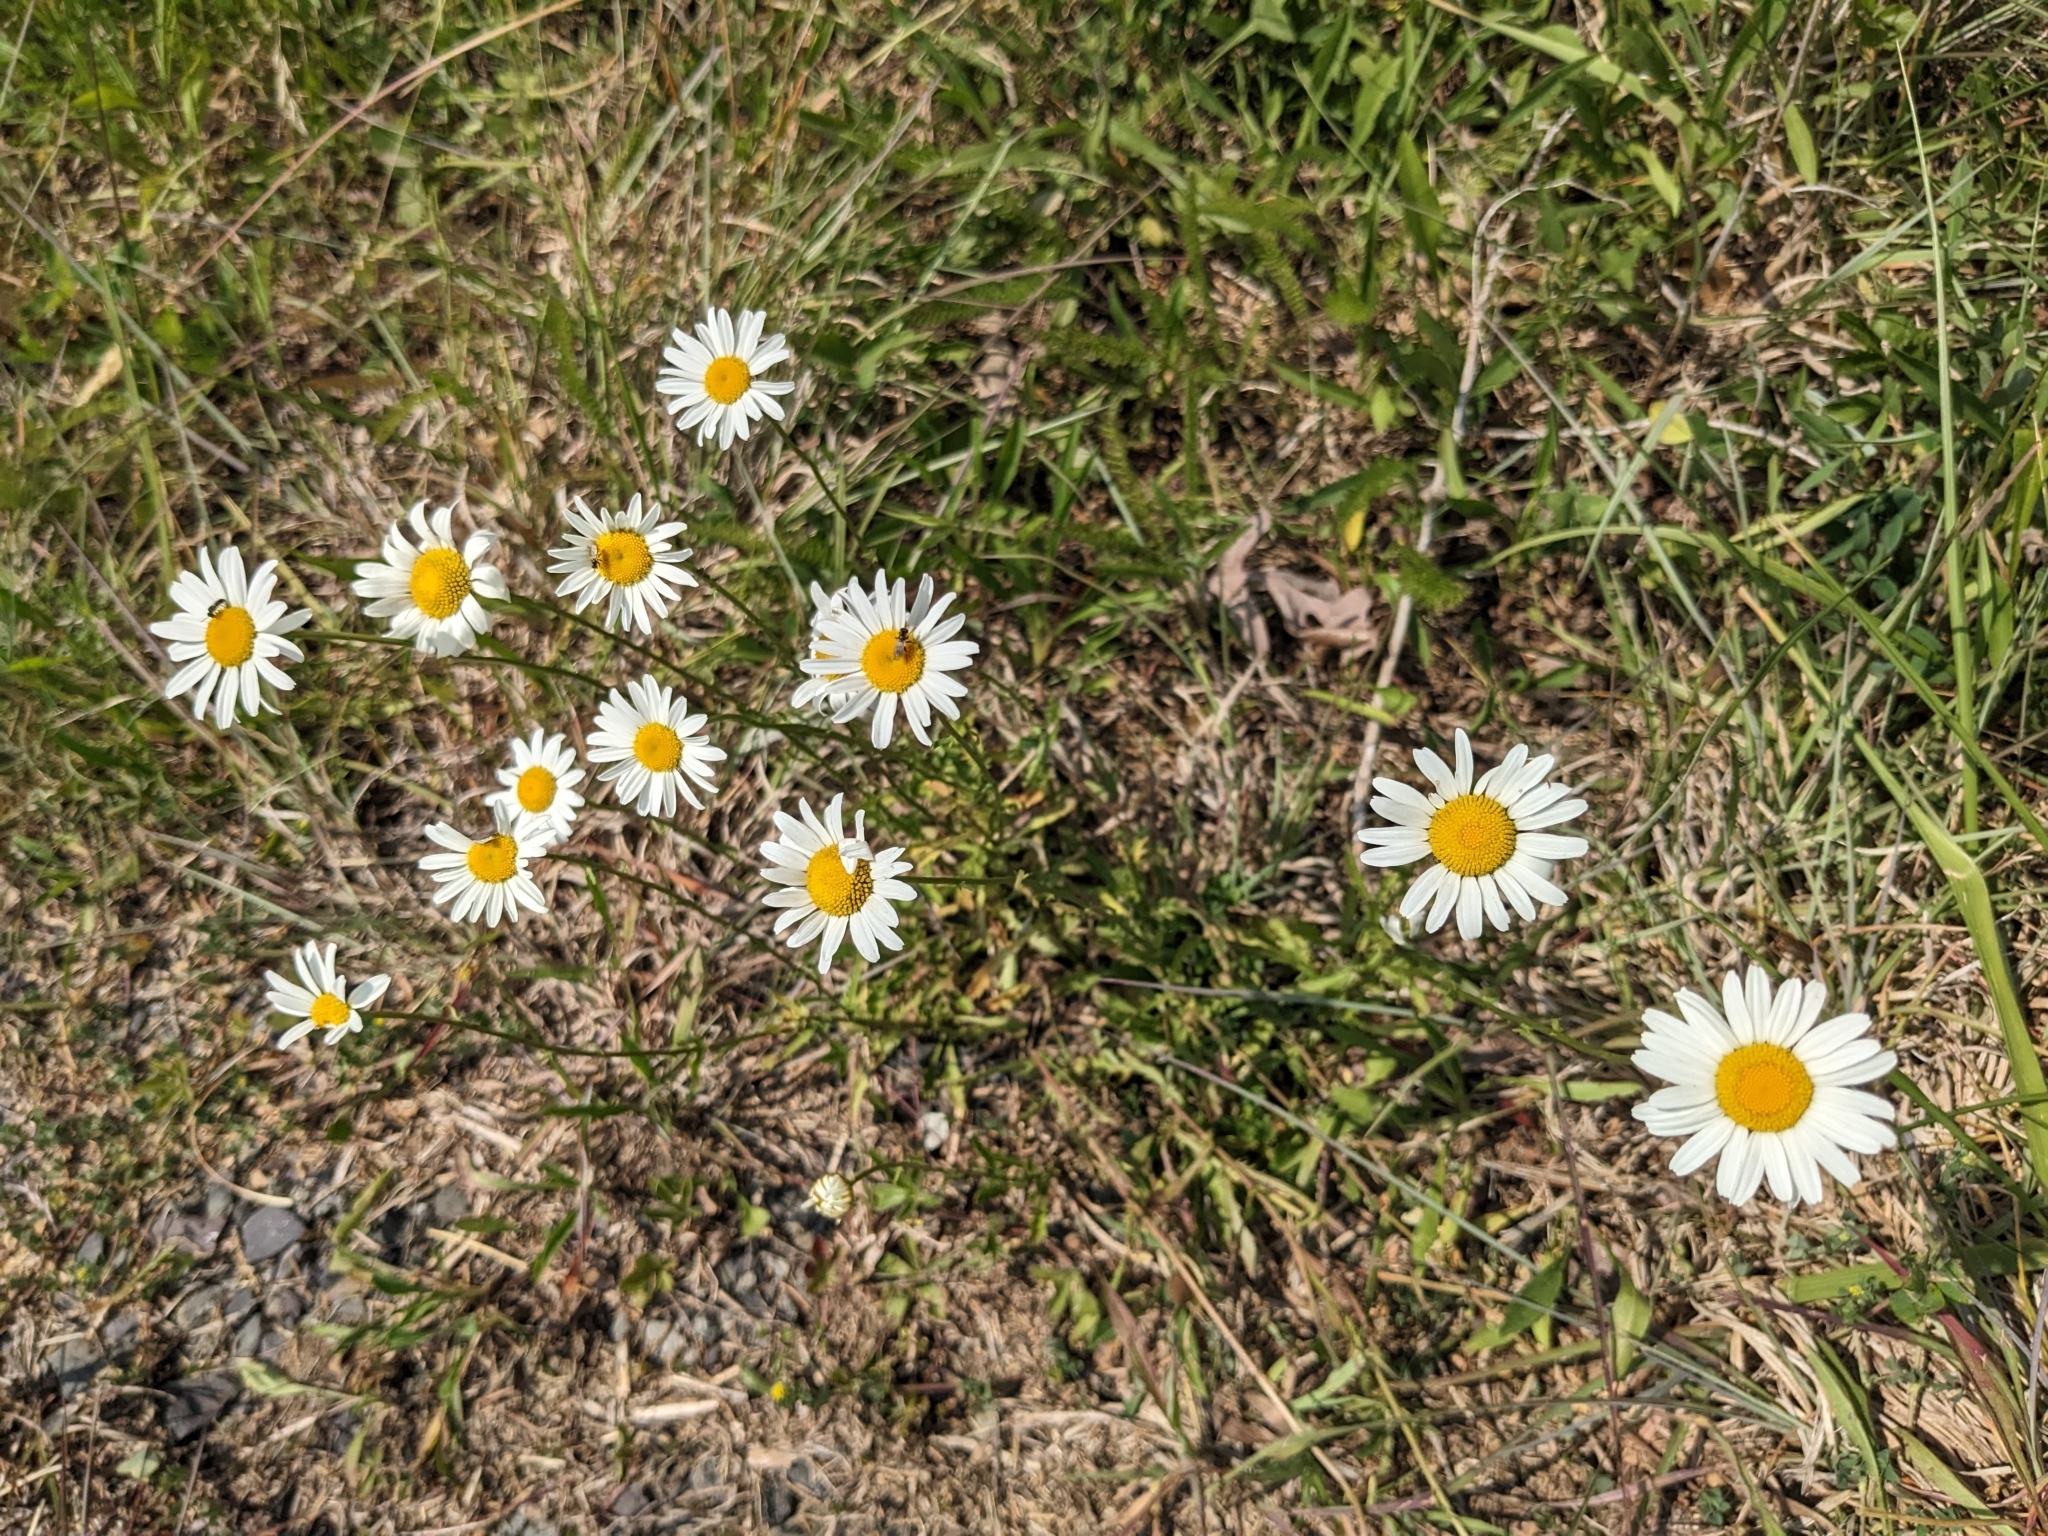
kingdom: Plantae
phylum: Tracheophyta
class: Magnoliopsida
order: Asterales
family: Asteraceae
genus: Leucanthemum
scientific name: Leucanthemum vulgare
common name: Oxeye daisy
